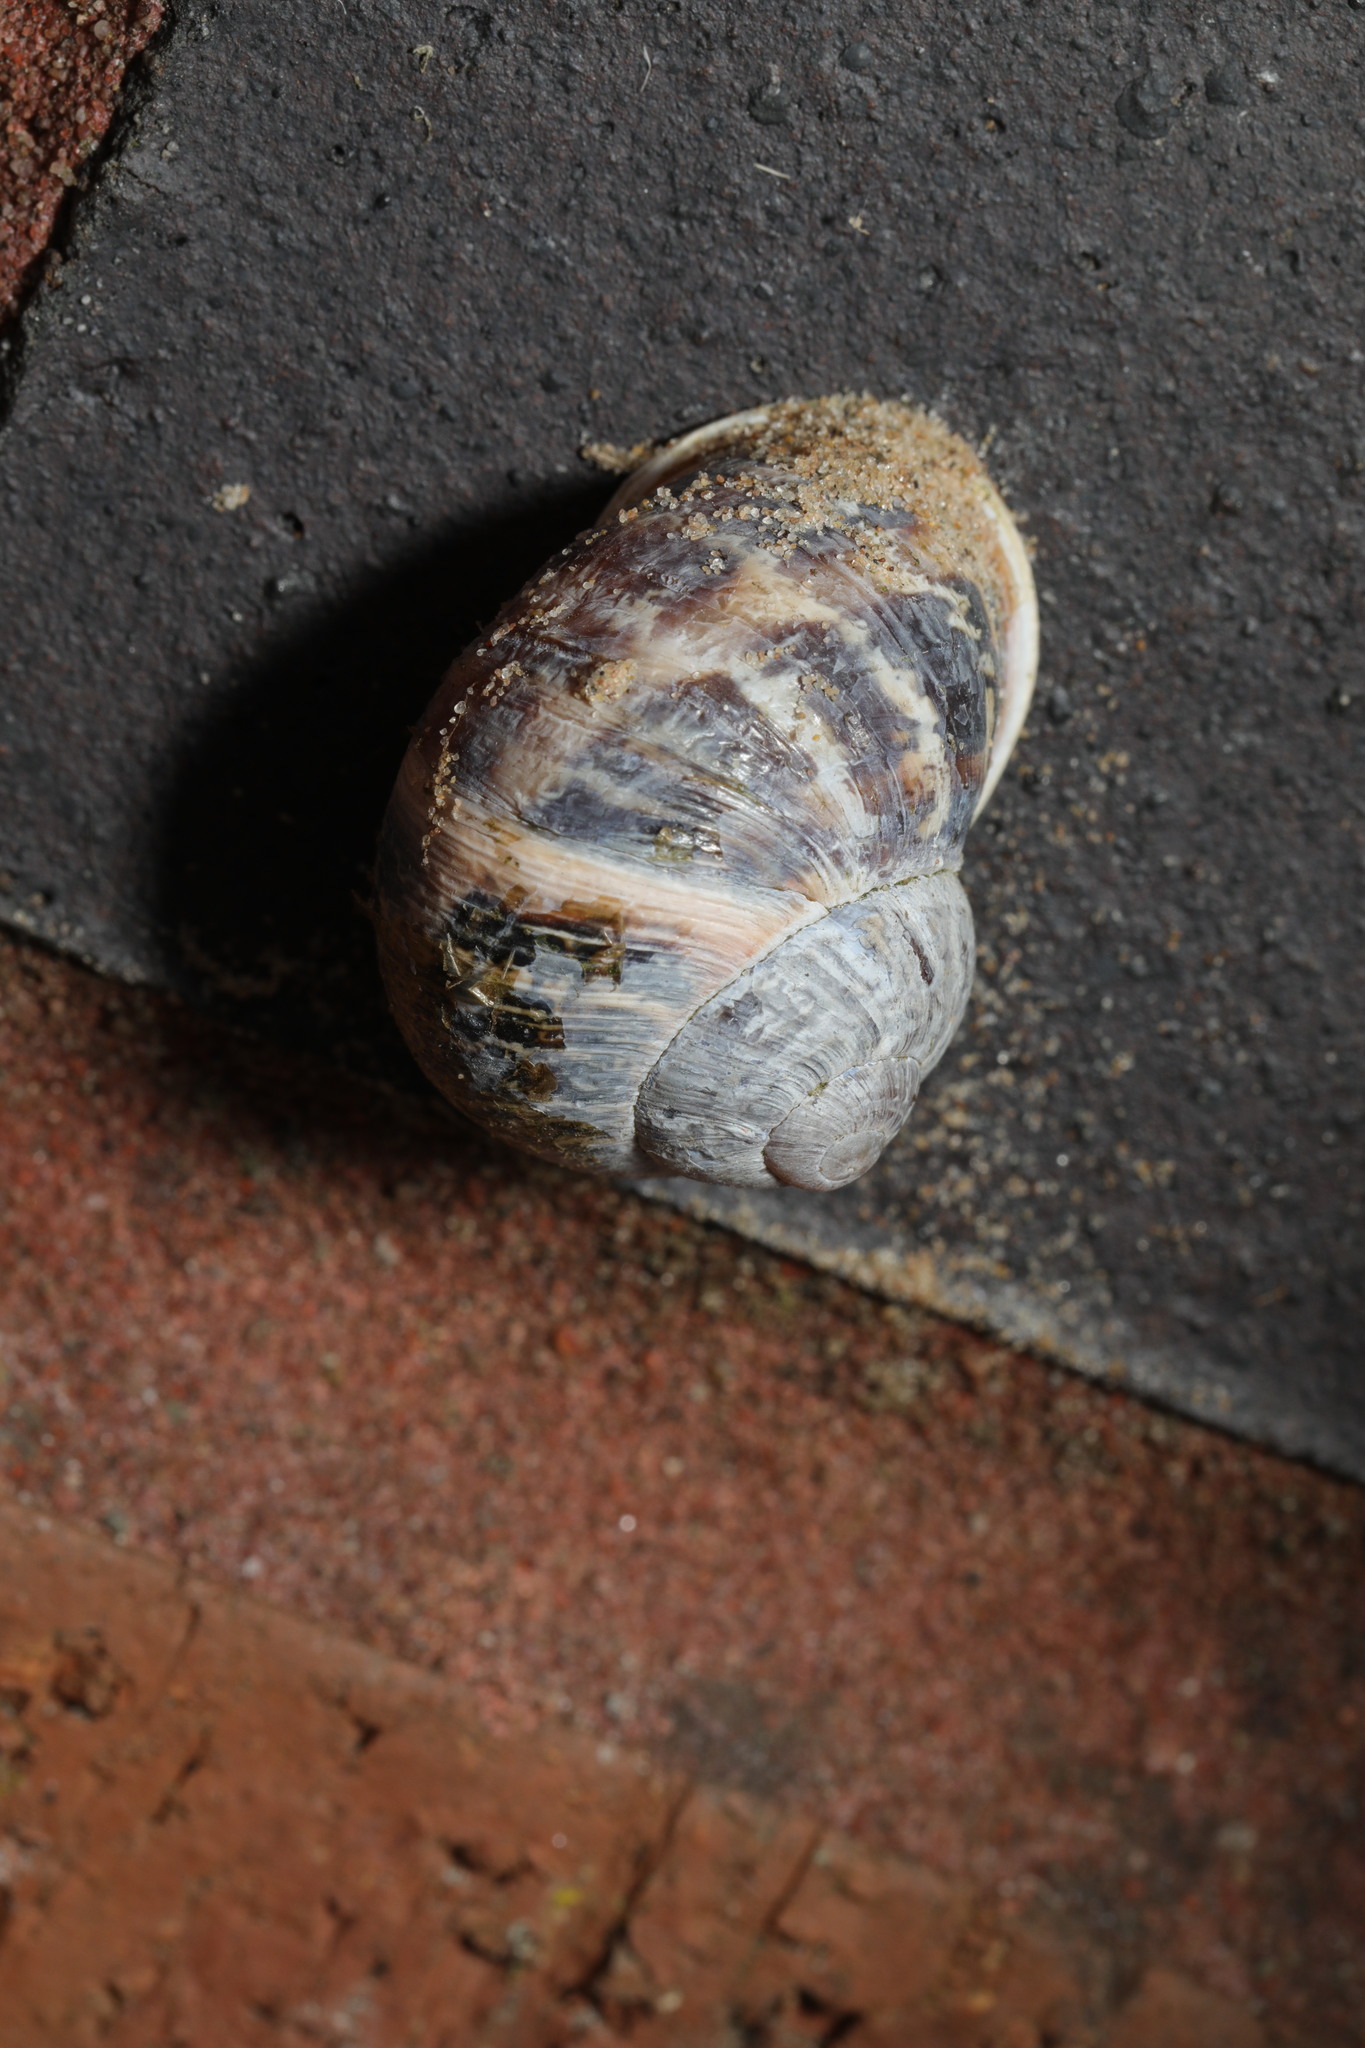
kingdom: Animalia
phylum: Mollusca
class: Gastropoda
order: Stylommatophora
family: Helicidae
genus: Cornu
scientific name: Cornu aspersum
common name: Brown garden snail
